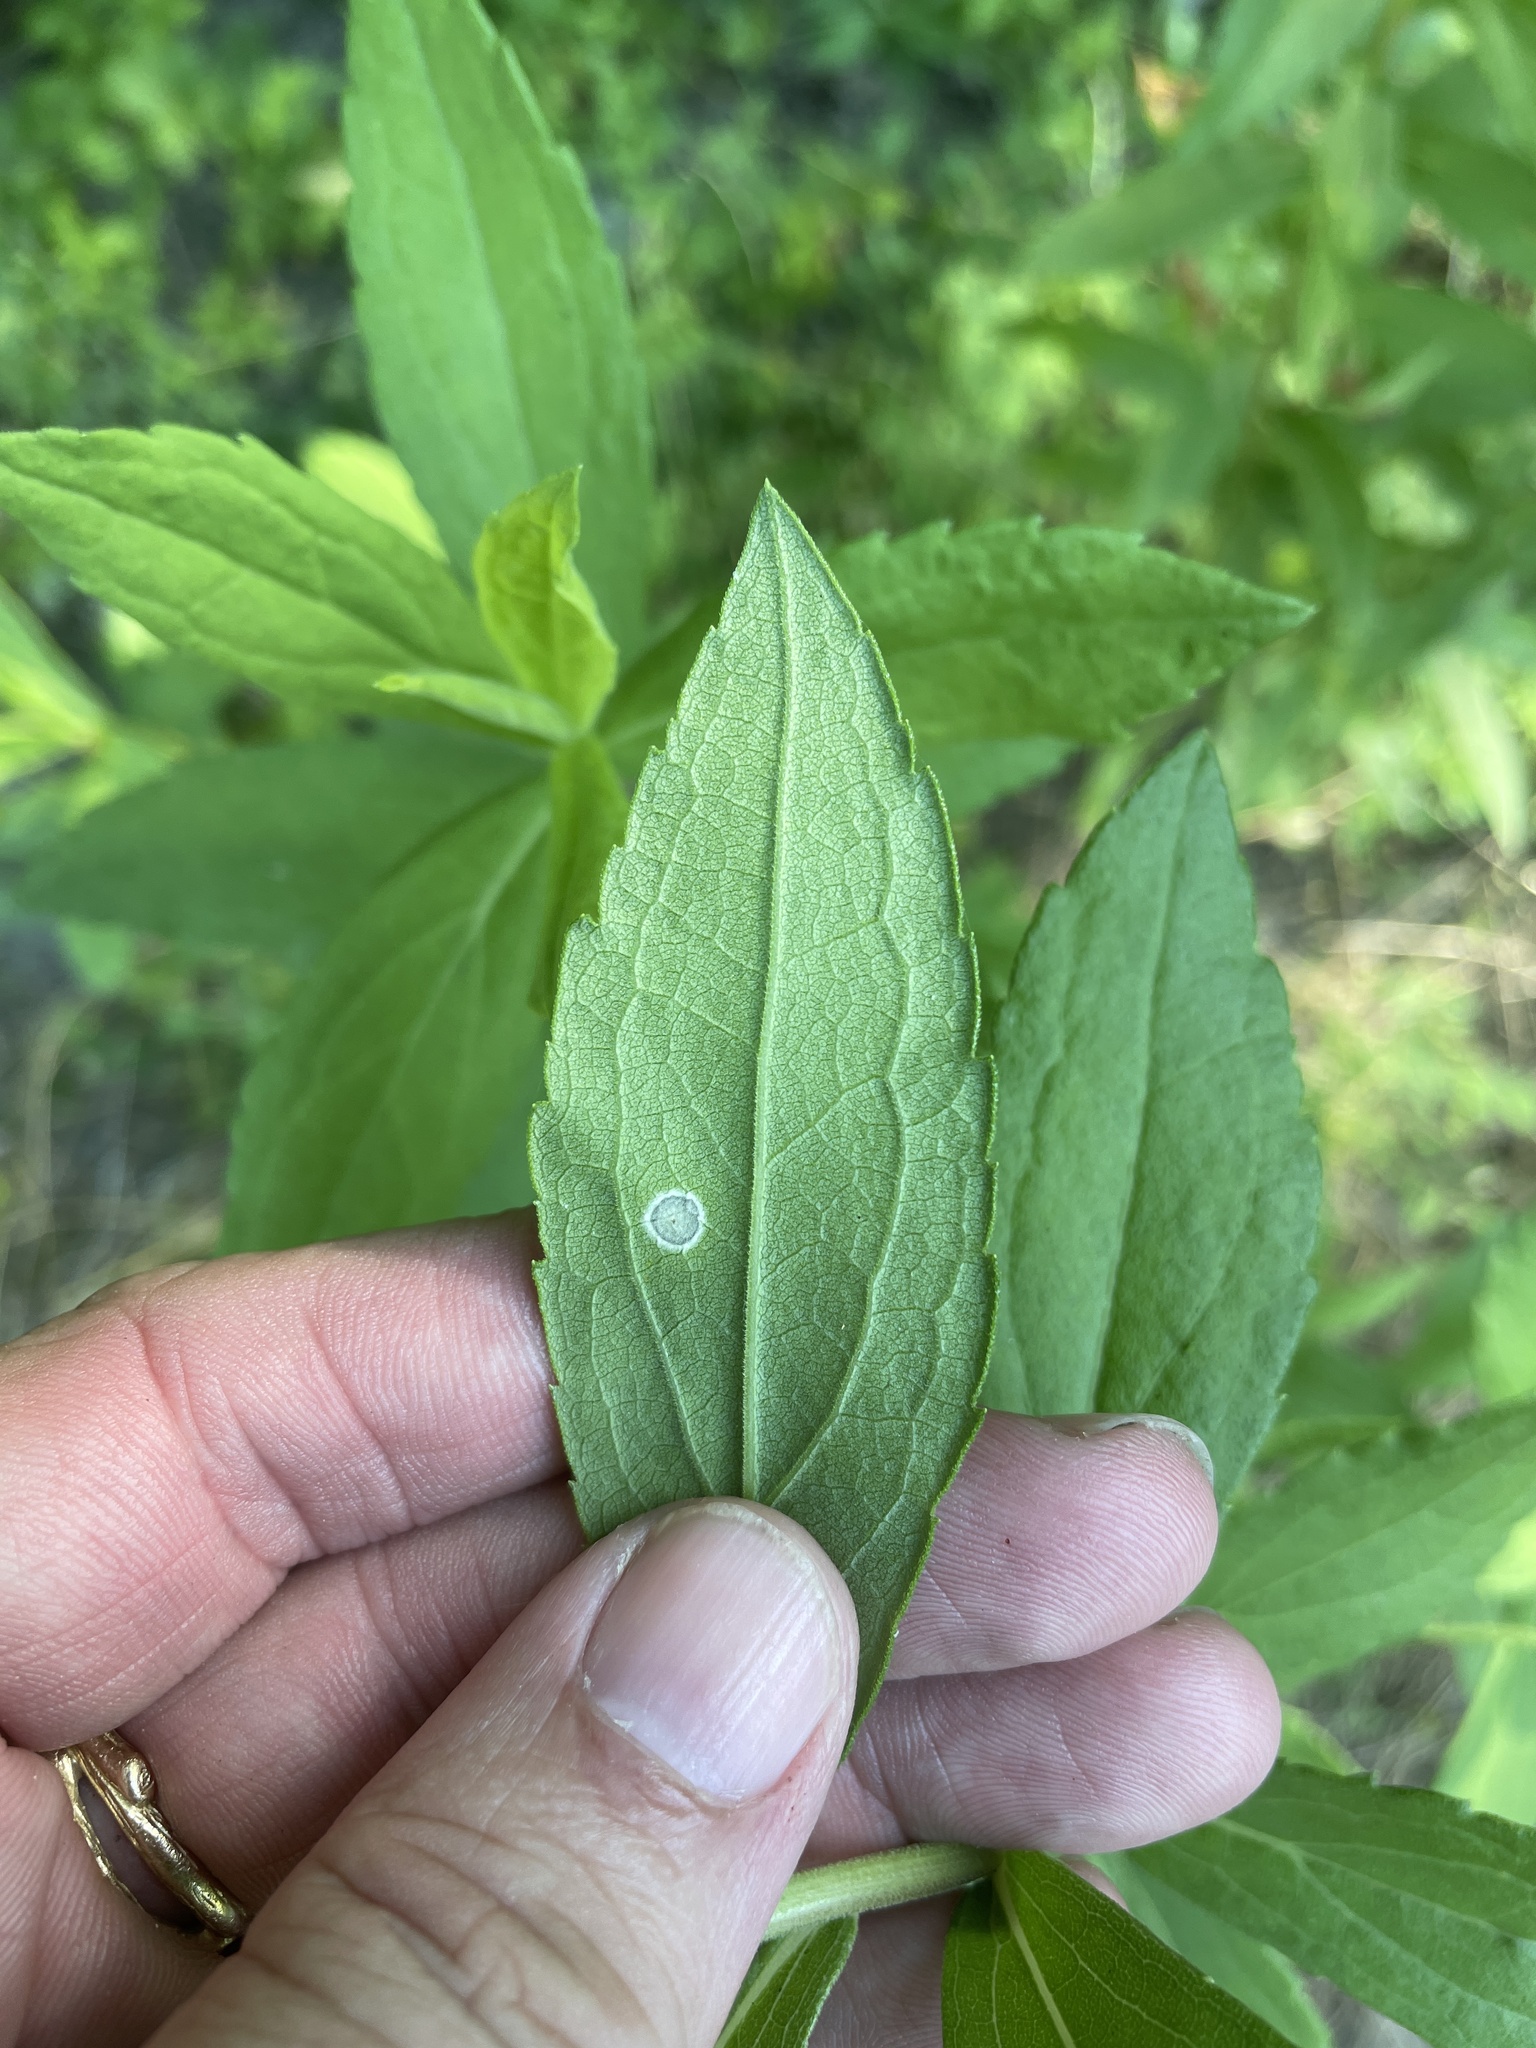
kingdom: Animalia
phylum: Arthropoda
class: Insecta
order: Diptera
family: Cecidomyiidae
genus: Asteromyia
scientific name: Asteromyia carbonifera
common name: Carbonifera goldenrod gall midge
